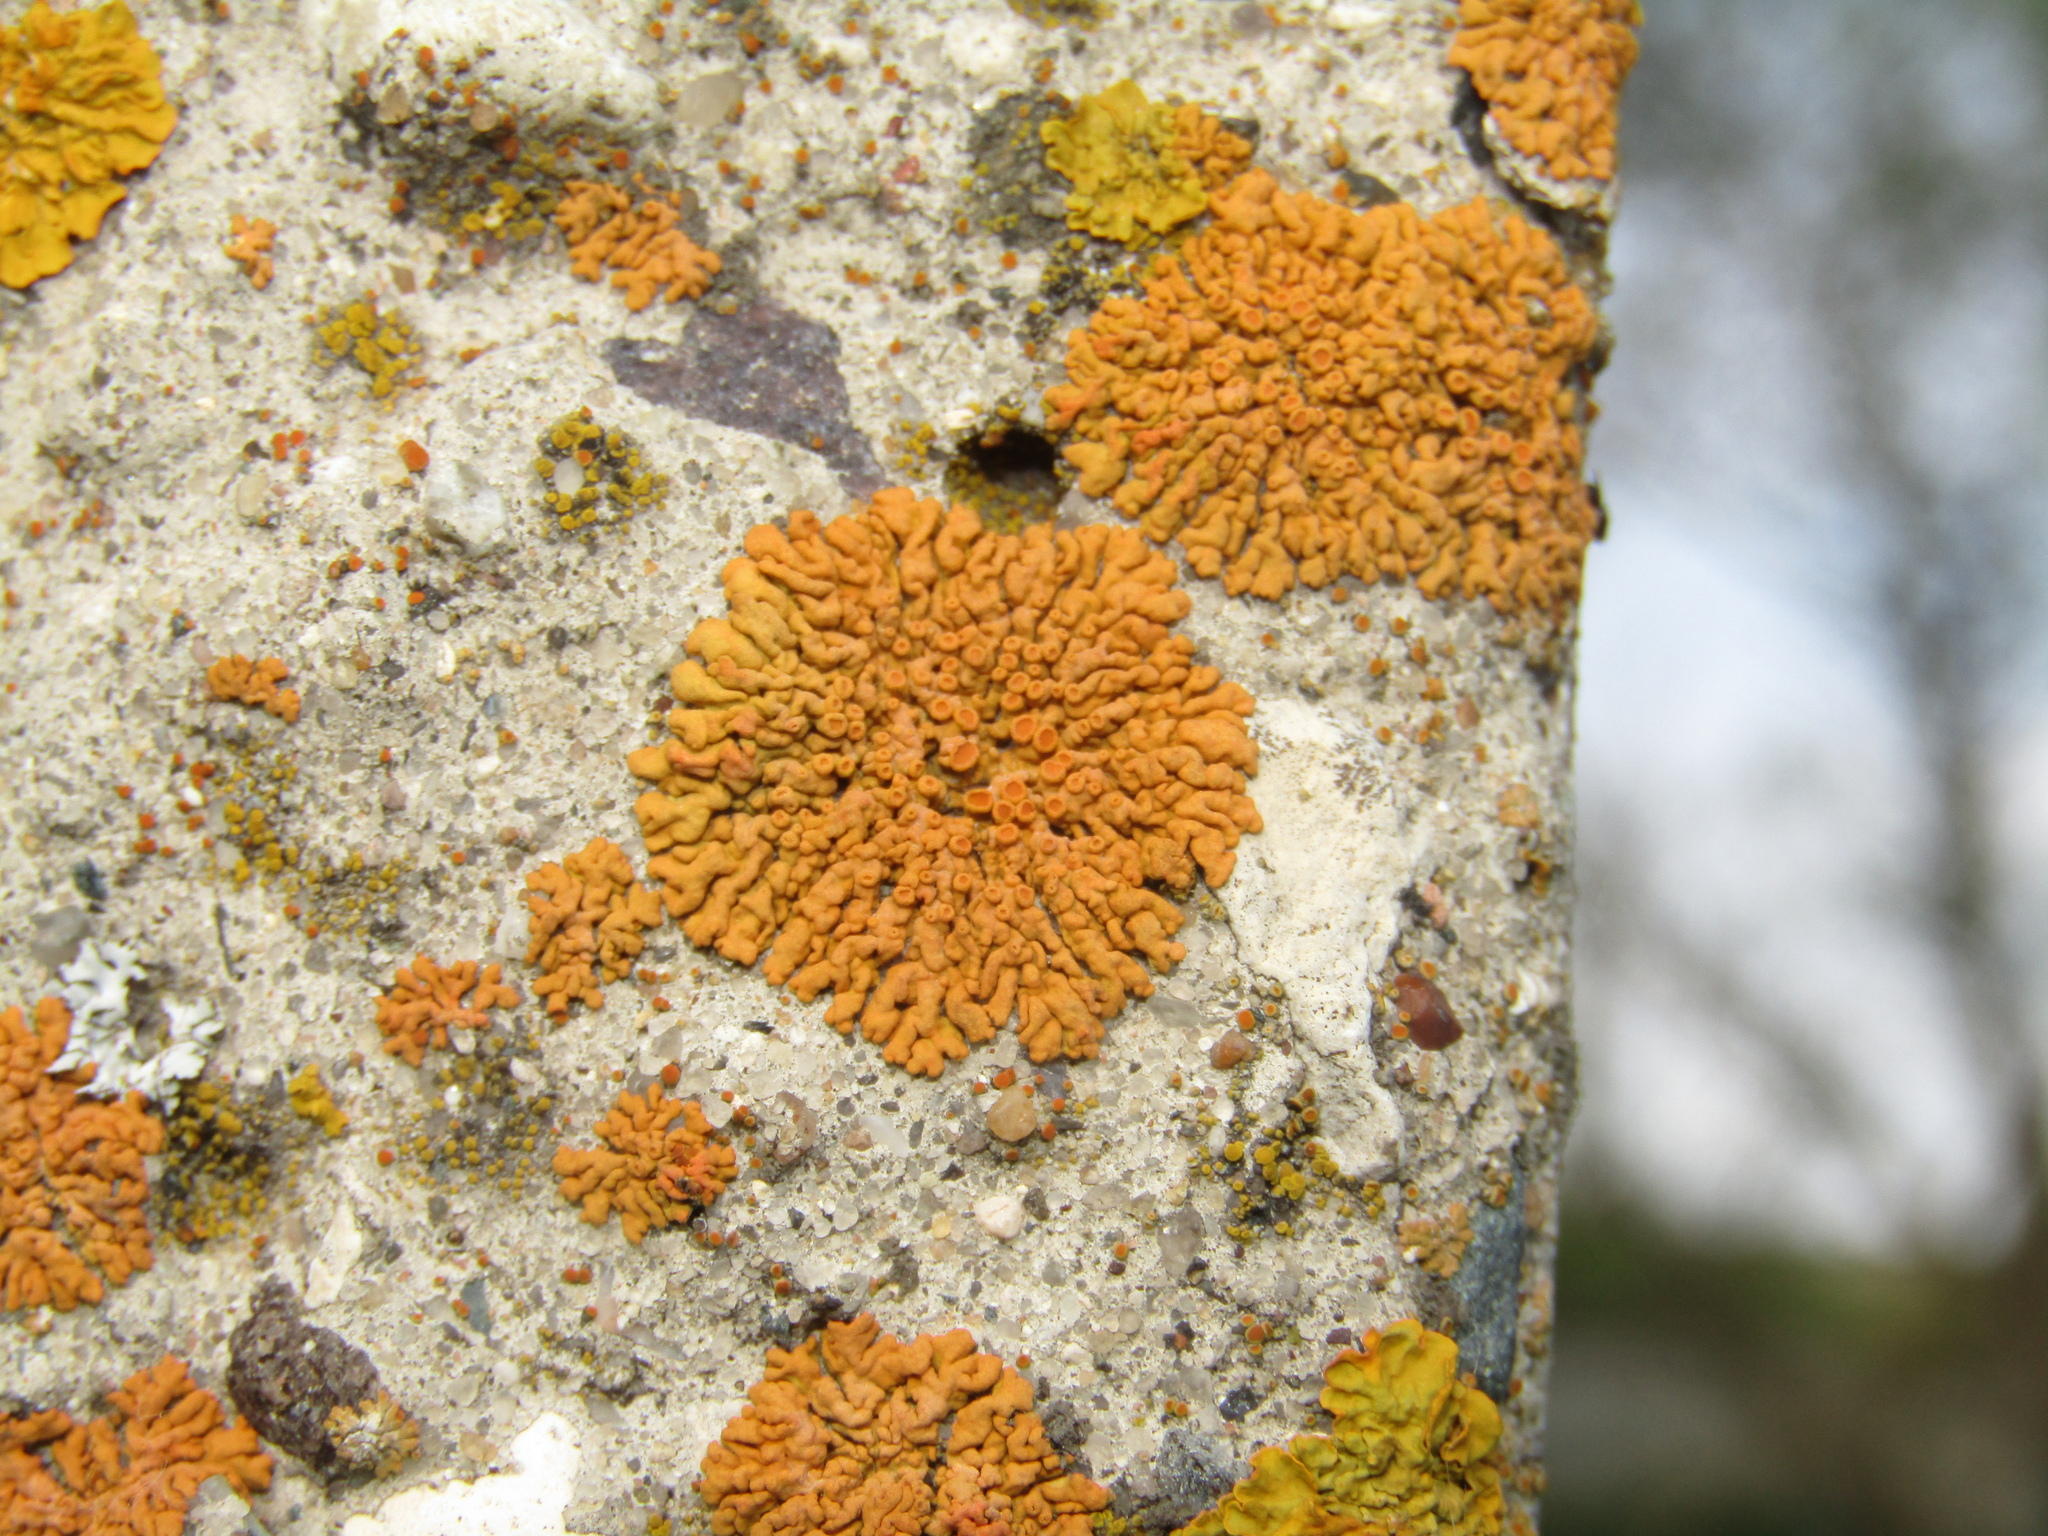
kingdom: Fungi
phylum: Ascomycota
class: Lecanoromycetes
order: Teloschistales
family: Teloschistaceae
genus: Xanthoria
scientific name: Xanthoria elegans
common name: Elegant sunburst lichen
